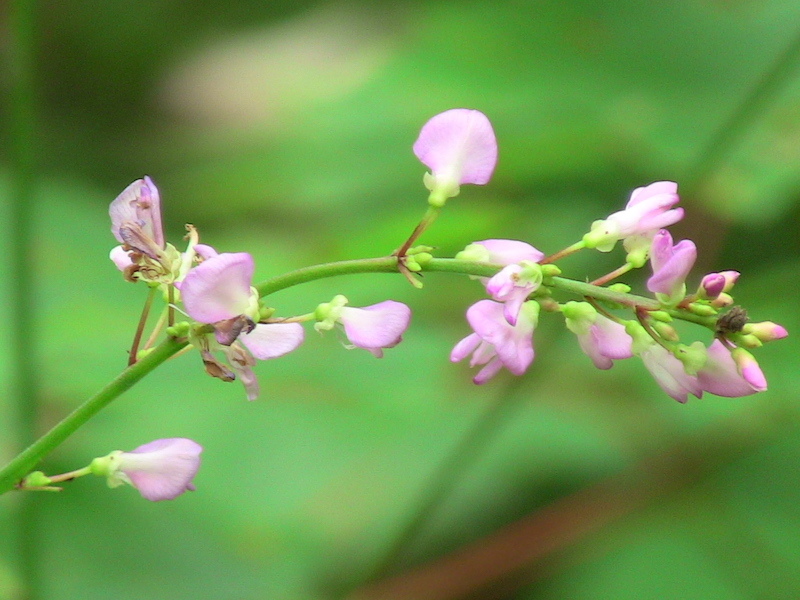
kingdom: Plantae
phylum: Tracheophyta
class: Magnoliopsida
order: Fabales
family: Fabaceae
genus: Hylodesmum
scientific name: Hylodesmum glutinosum
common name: Clustered-leaved tick-trefoil
